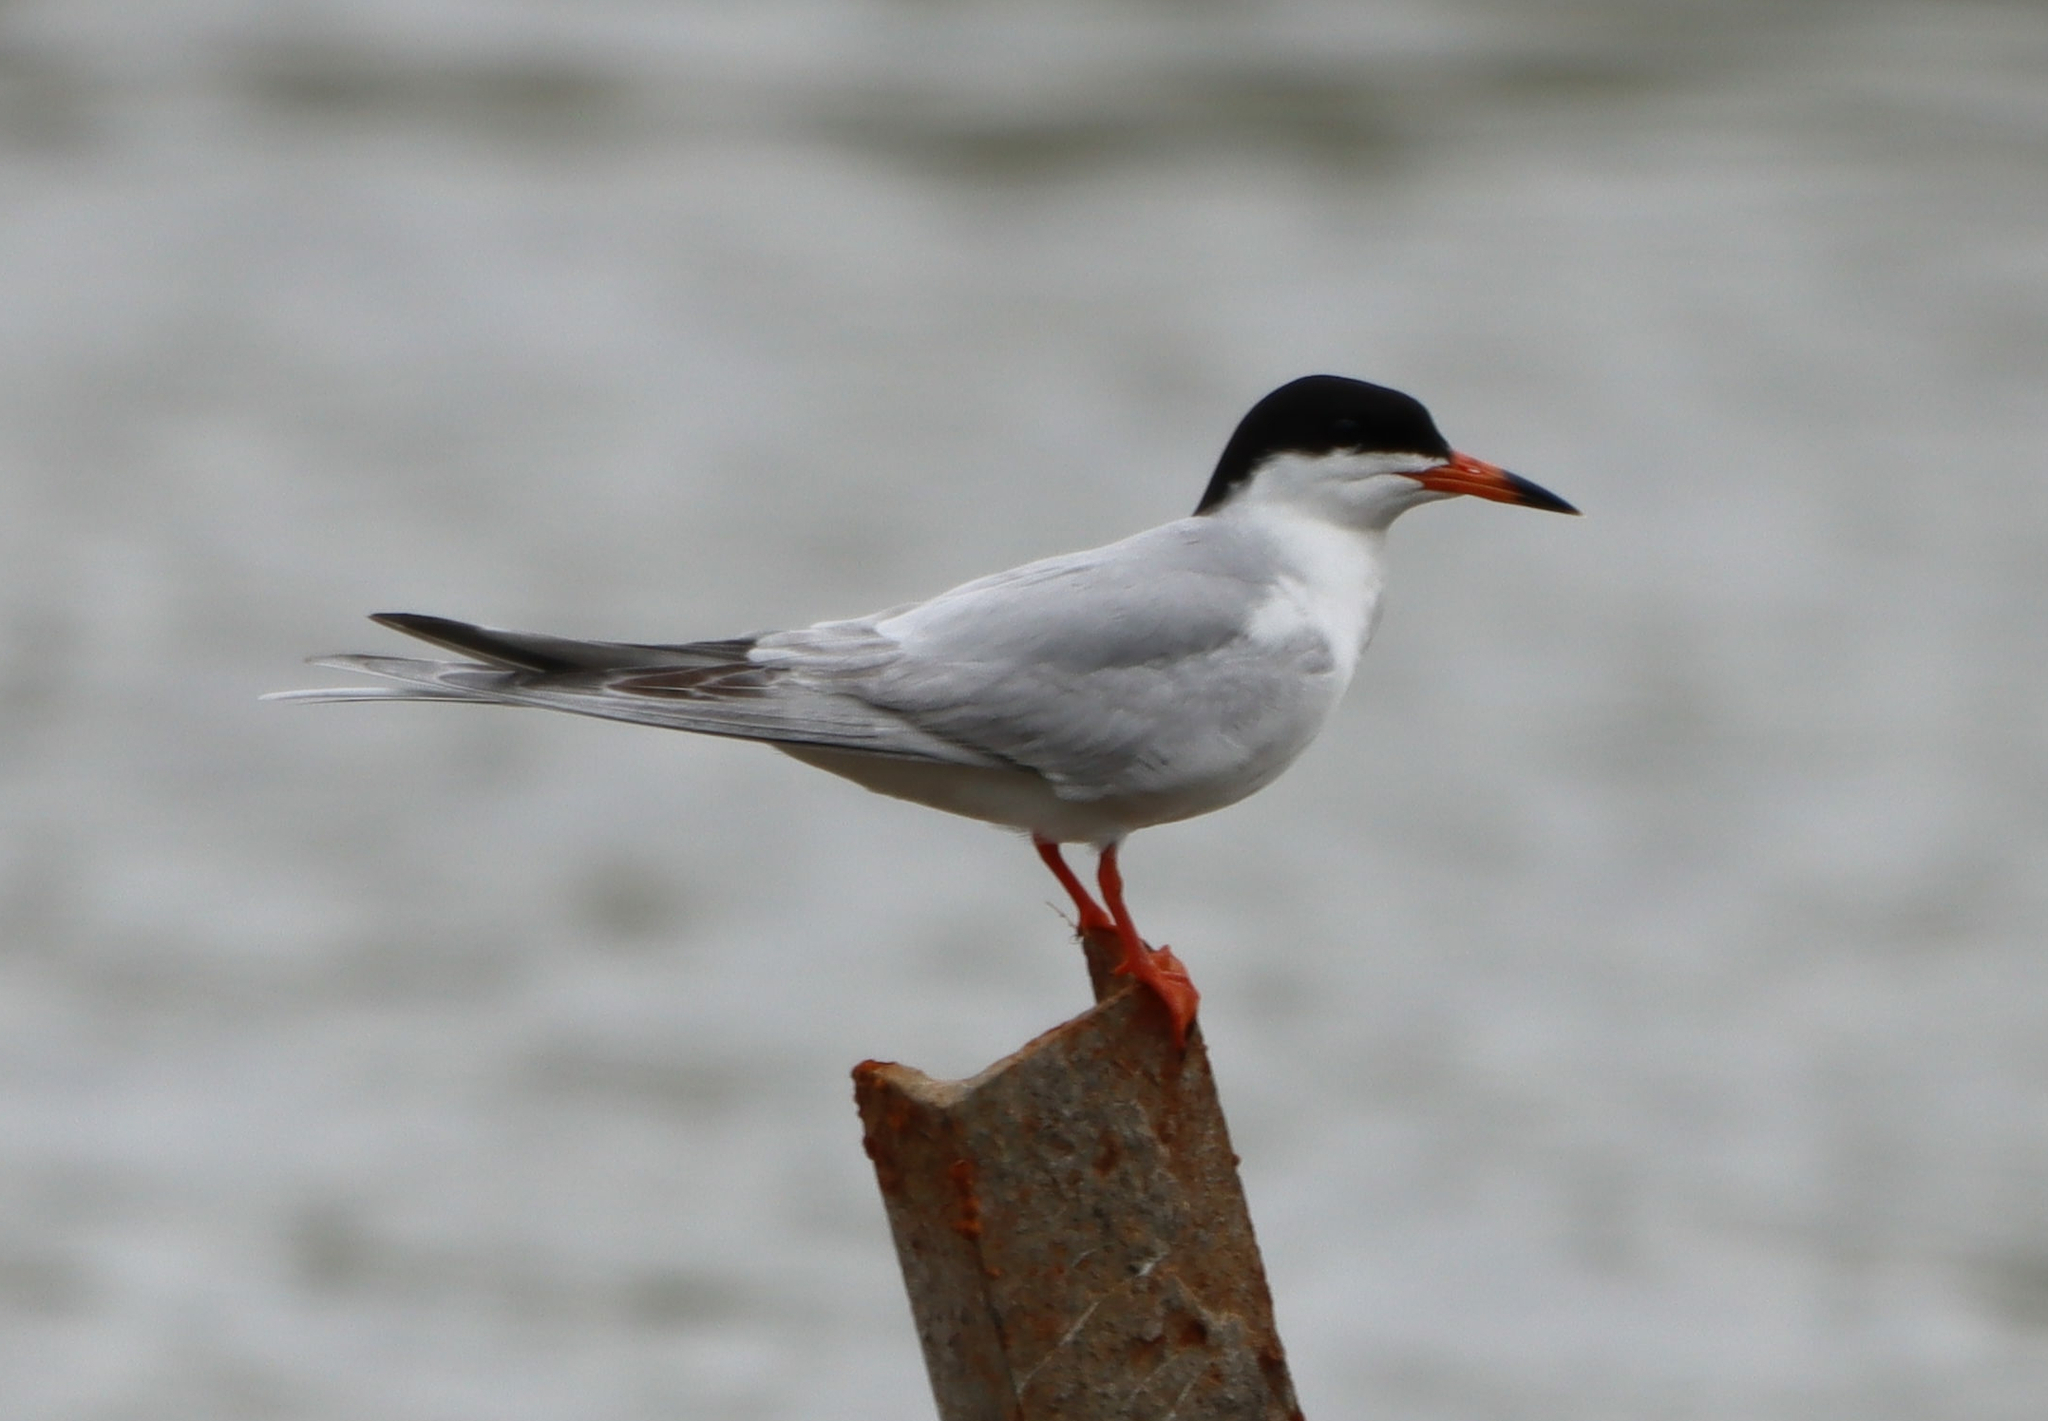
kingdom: Animalia
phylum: Chordata
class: Aves
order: Charadriiformes
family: Laridae
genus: Sterna
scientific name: Sterna forsteri
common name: Forster's tern
